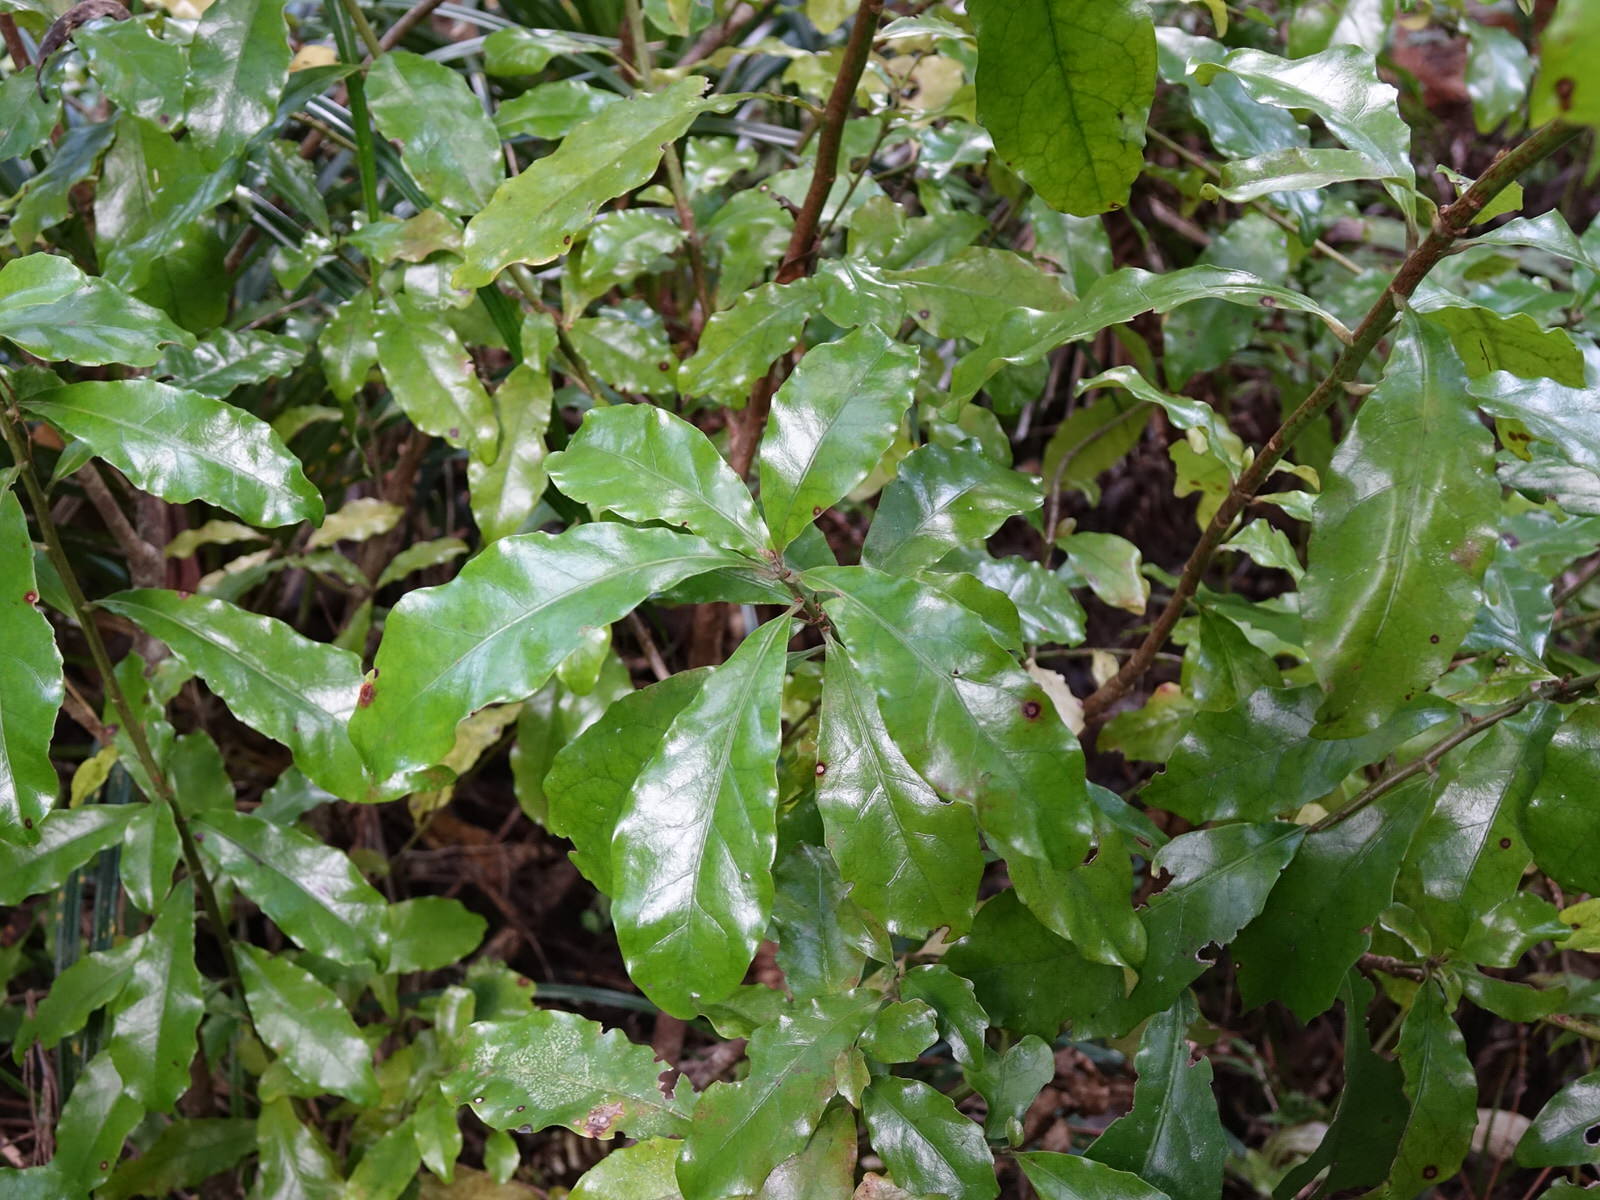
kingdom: Plantae
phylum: Tracheophyta
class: Magnoliopsida
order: Asterales
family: Alseuosmiaceae
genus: Alseuosmia
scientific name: Alseuosmia macrophylla
